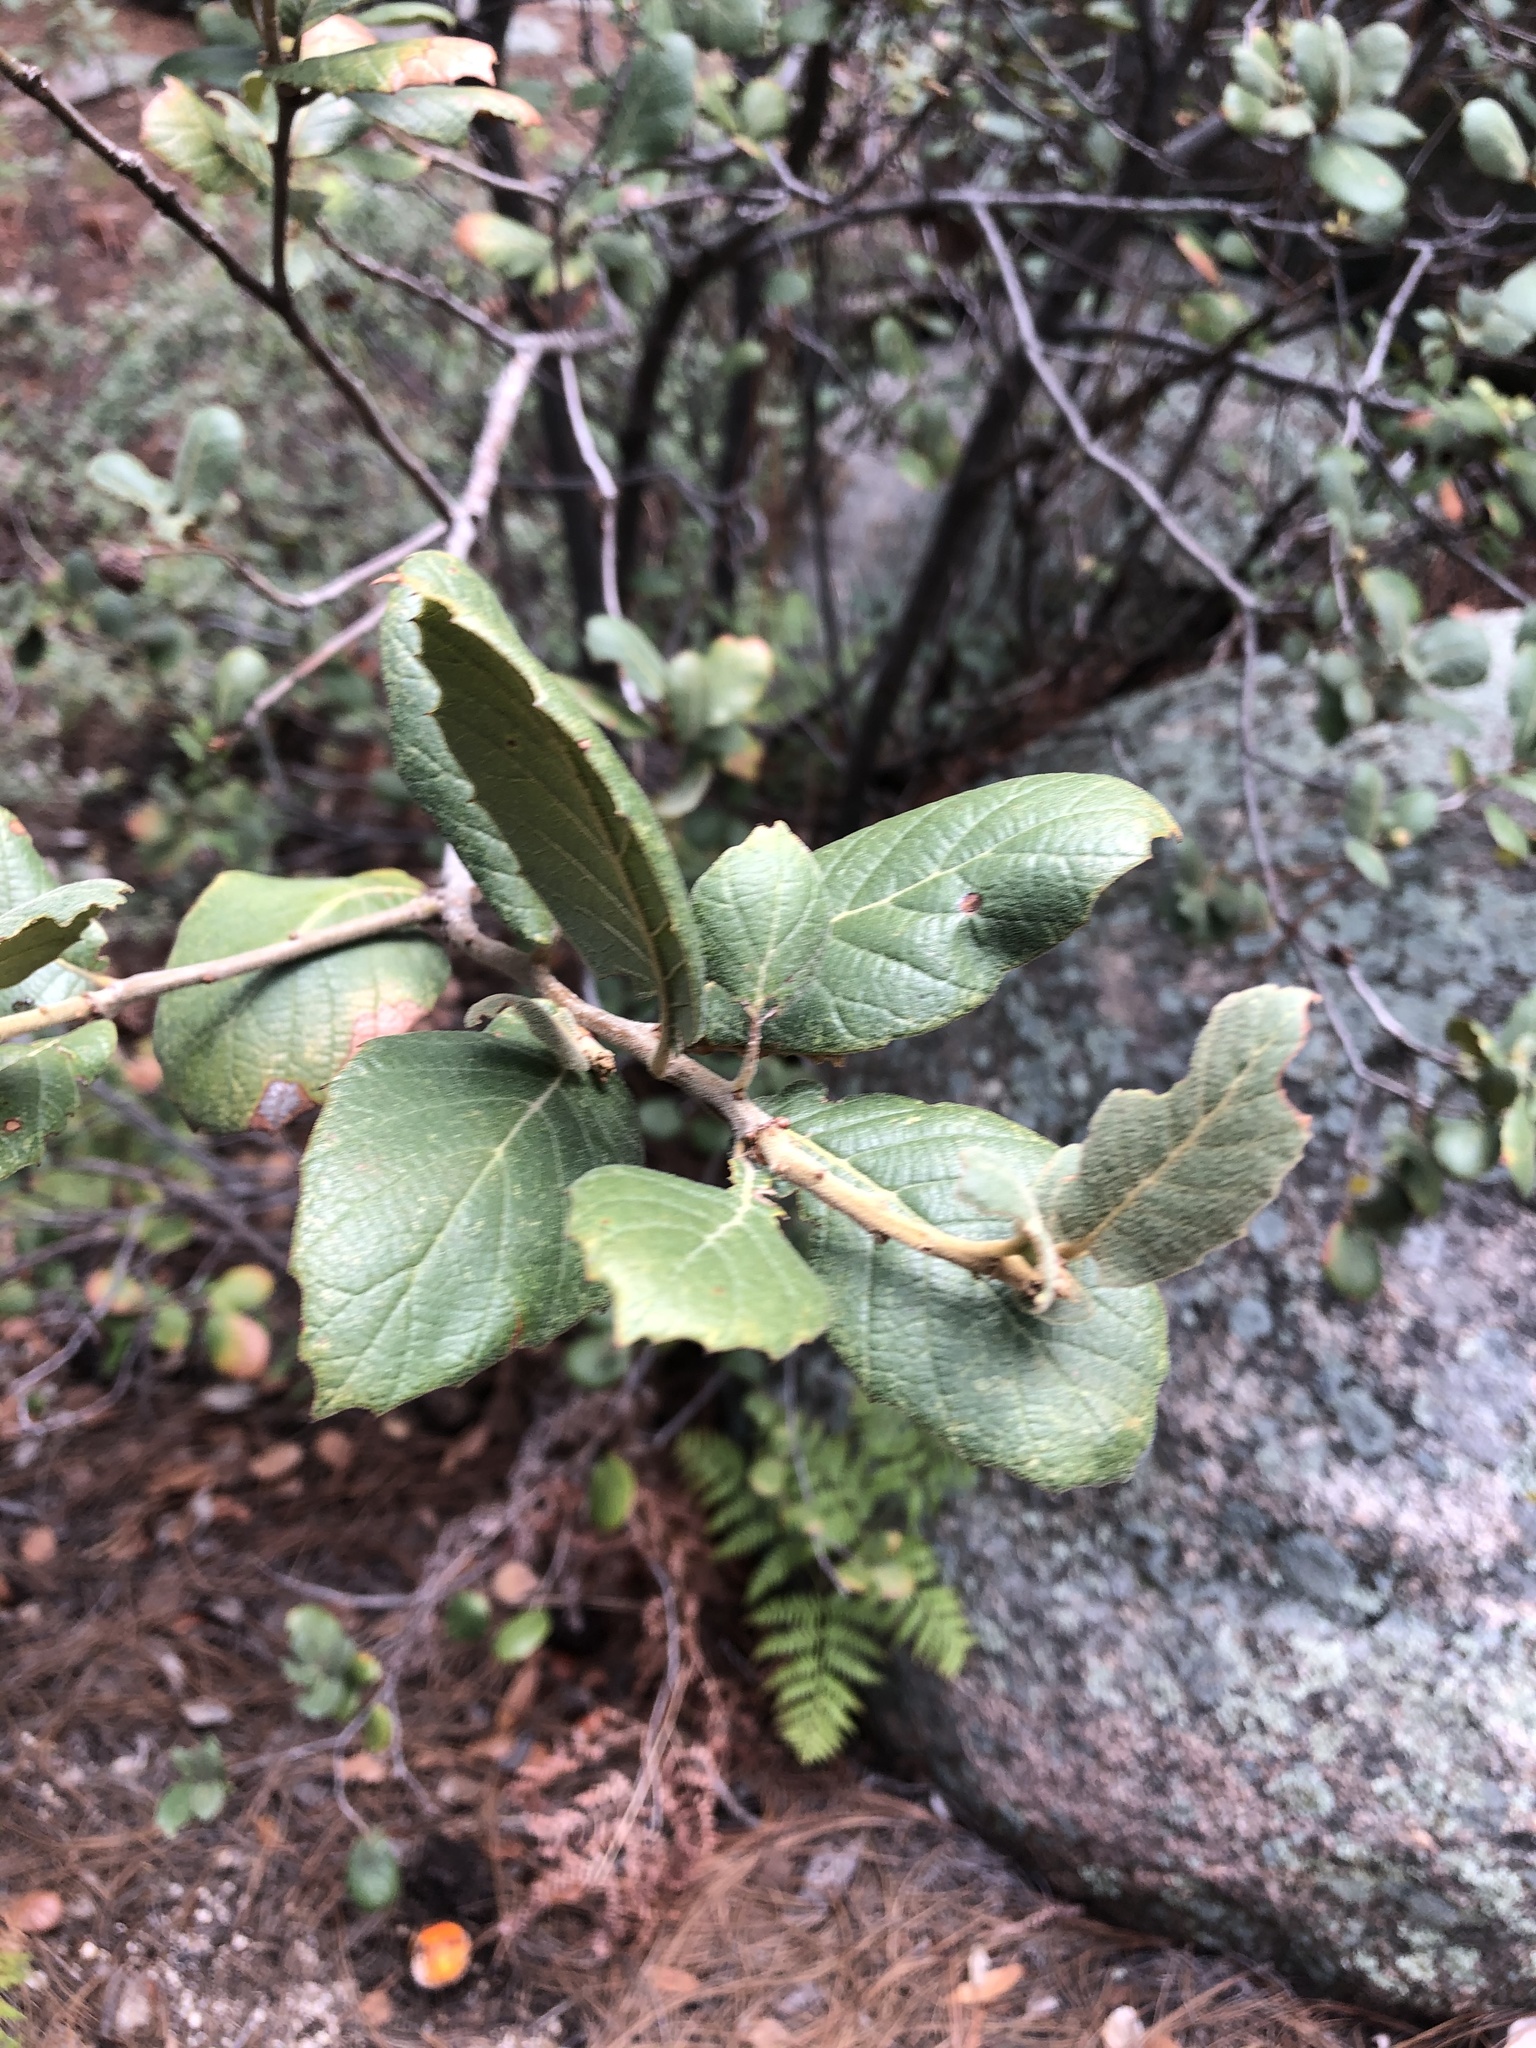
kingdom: Plantae
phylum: Tracheophyta
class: Magnoliopsida
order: Fagales
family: Fagaceae
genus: Quercus
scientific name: Quercus rugosa
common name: Netleaf oak
